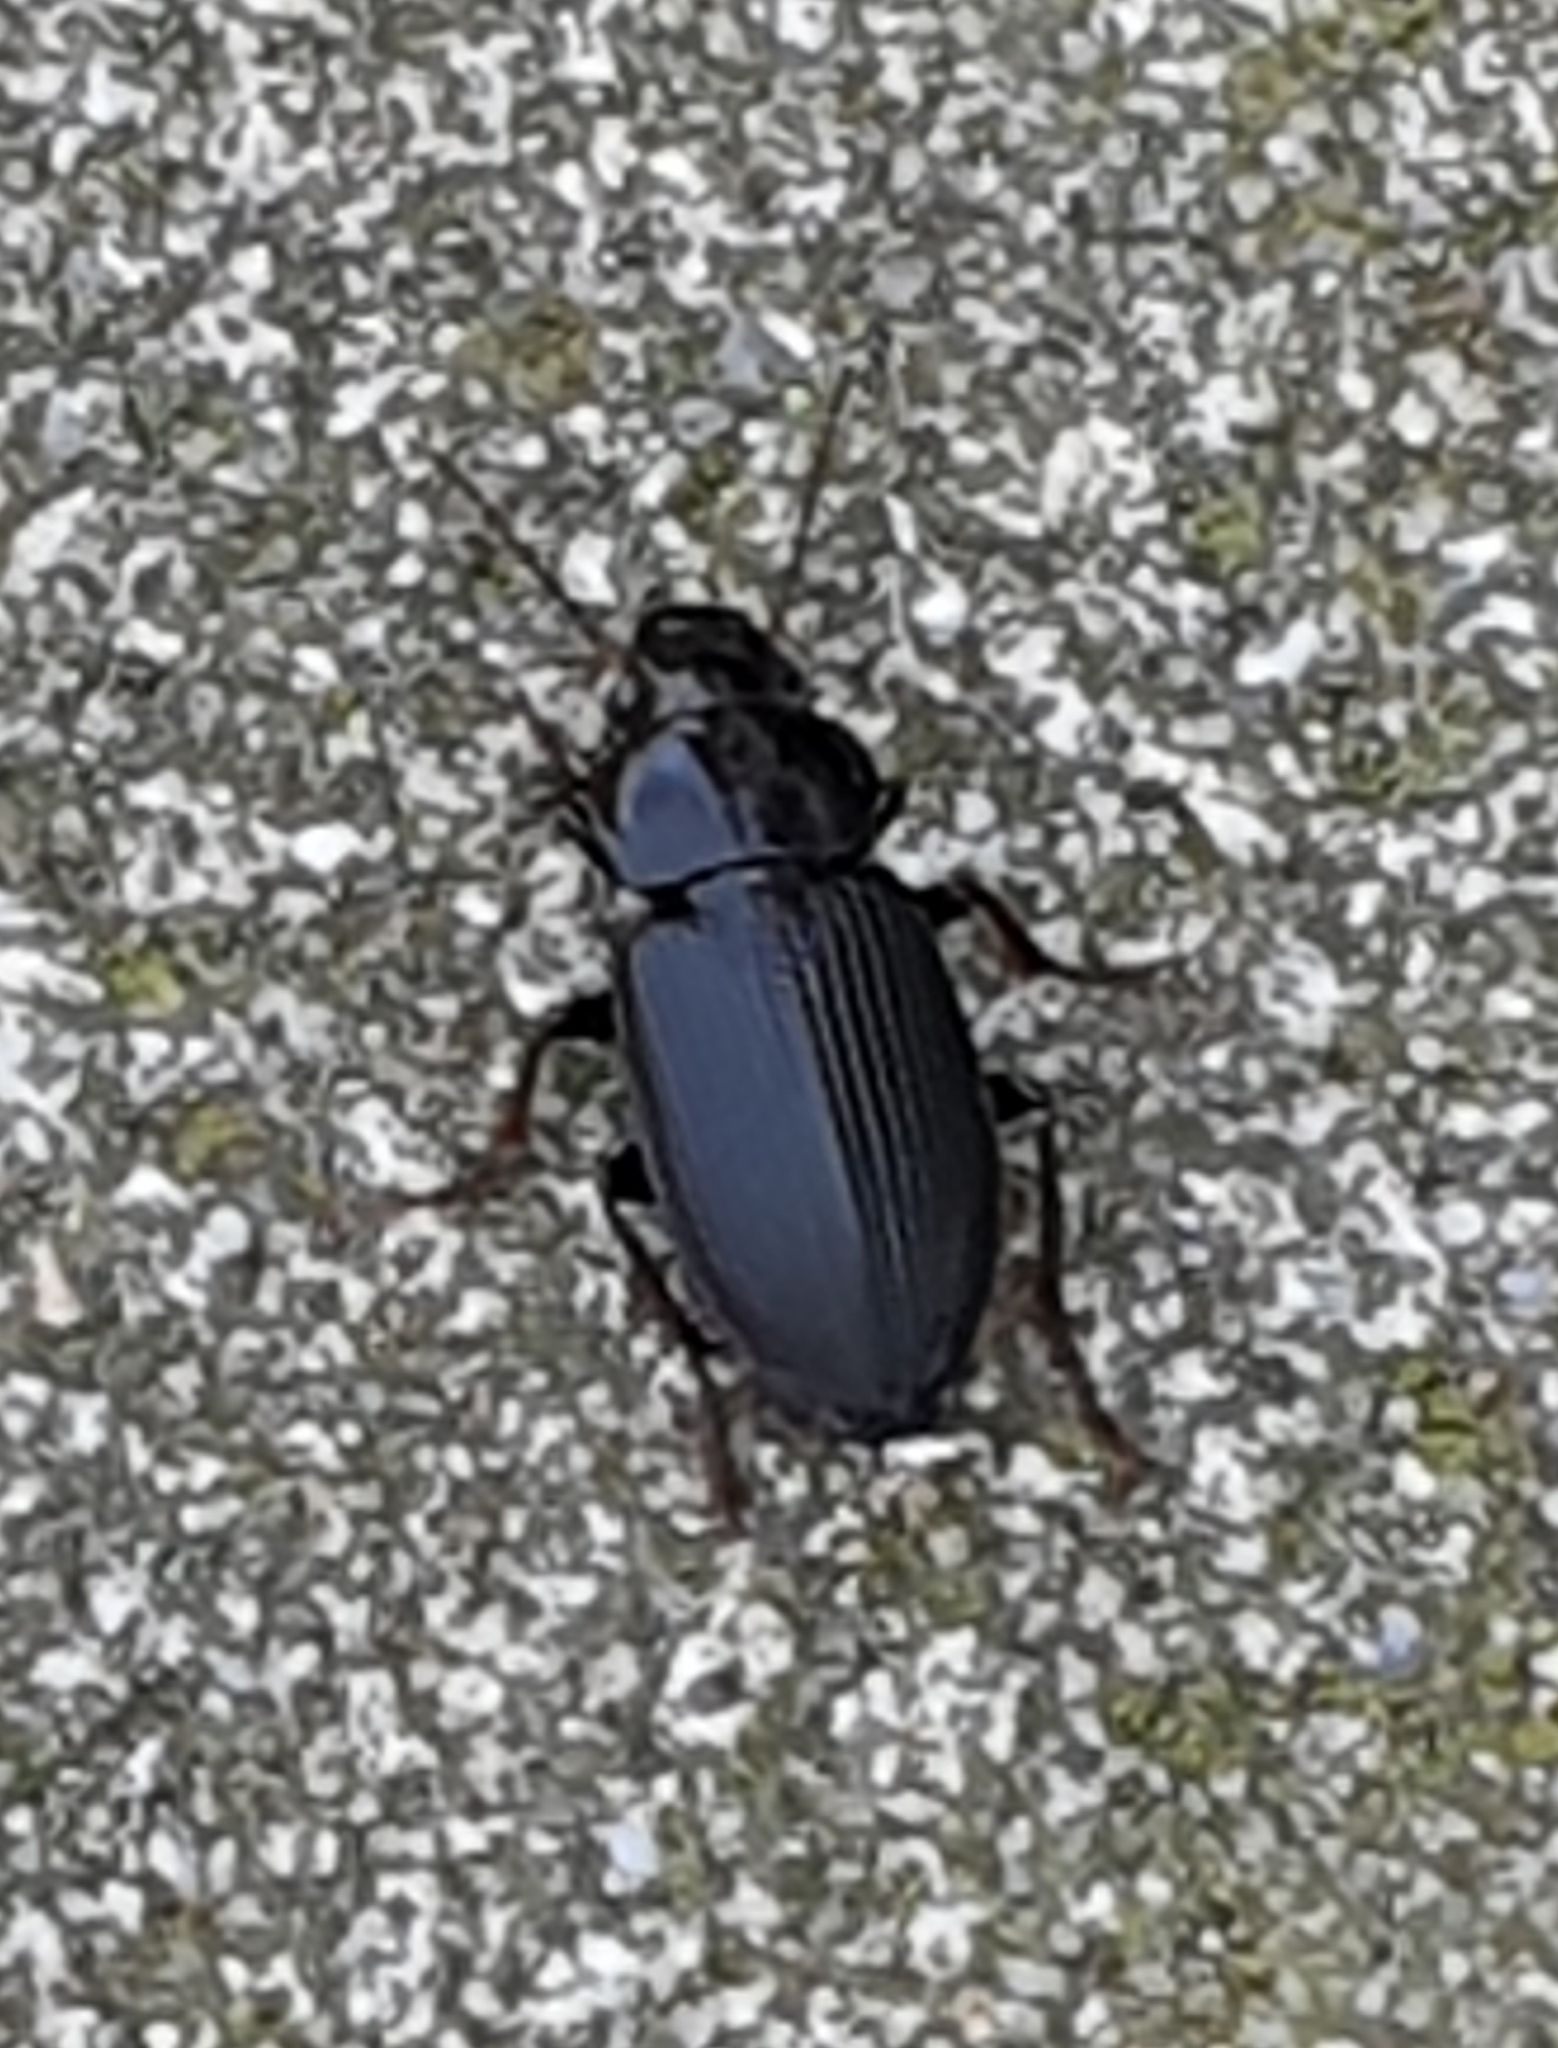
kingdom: Animalia
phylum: Arthropoda
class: Insecta
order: Coleoptera
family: Carabidae
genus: Anisodactylus
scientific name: Anisodactylus binotatus
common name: Two-marked harp ground beetle
